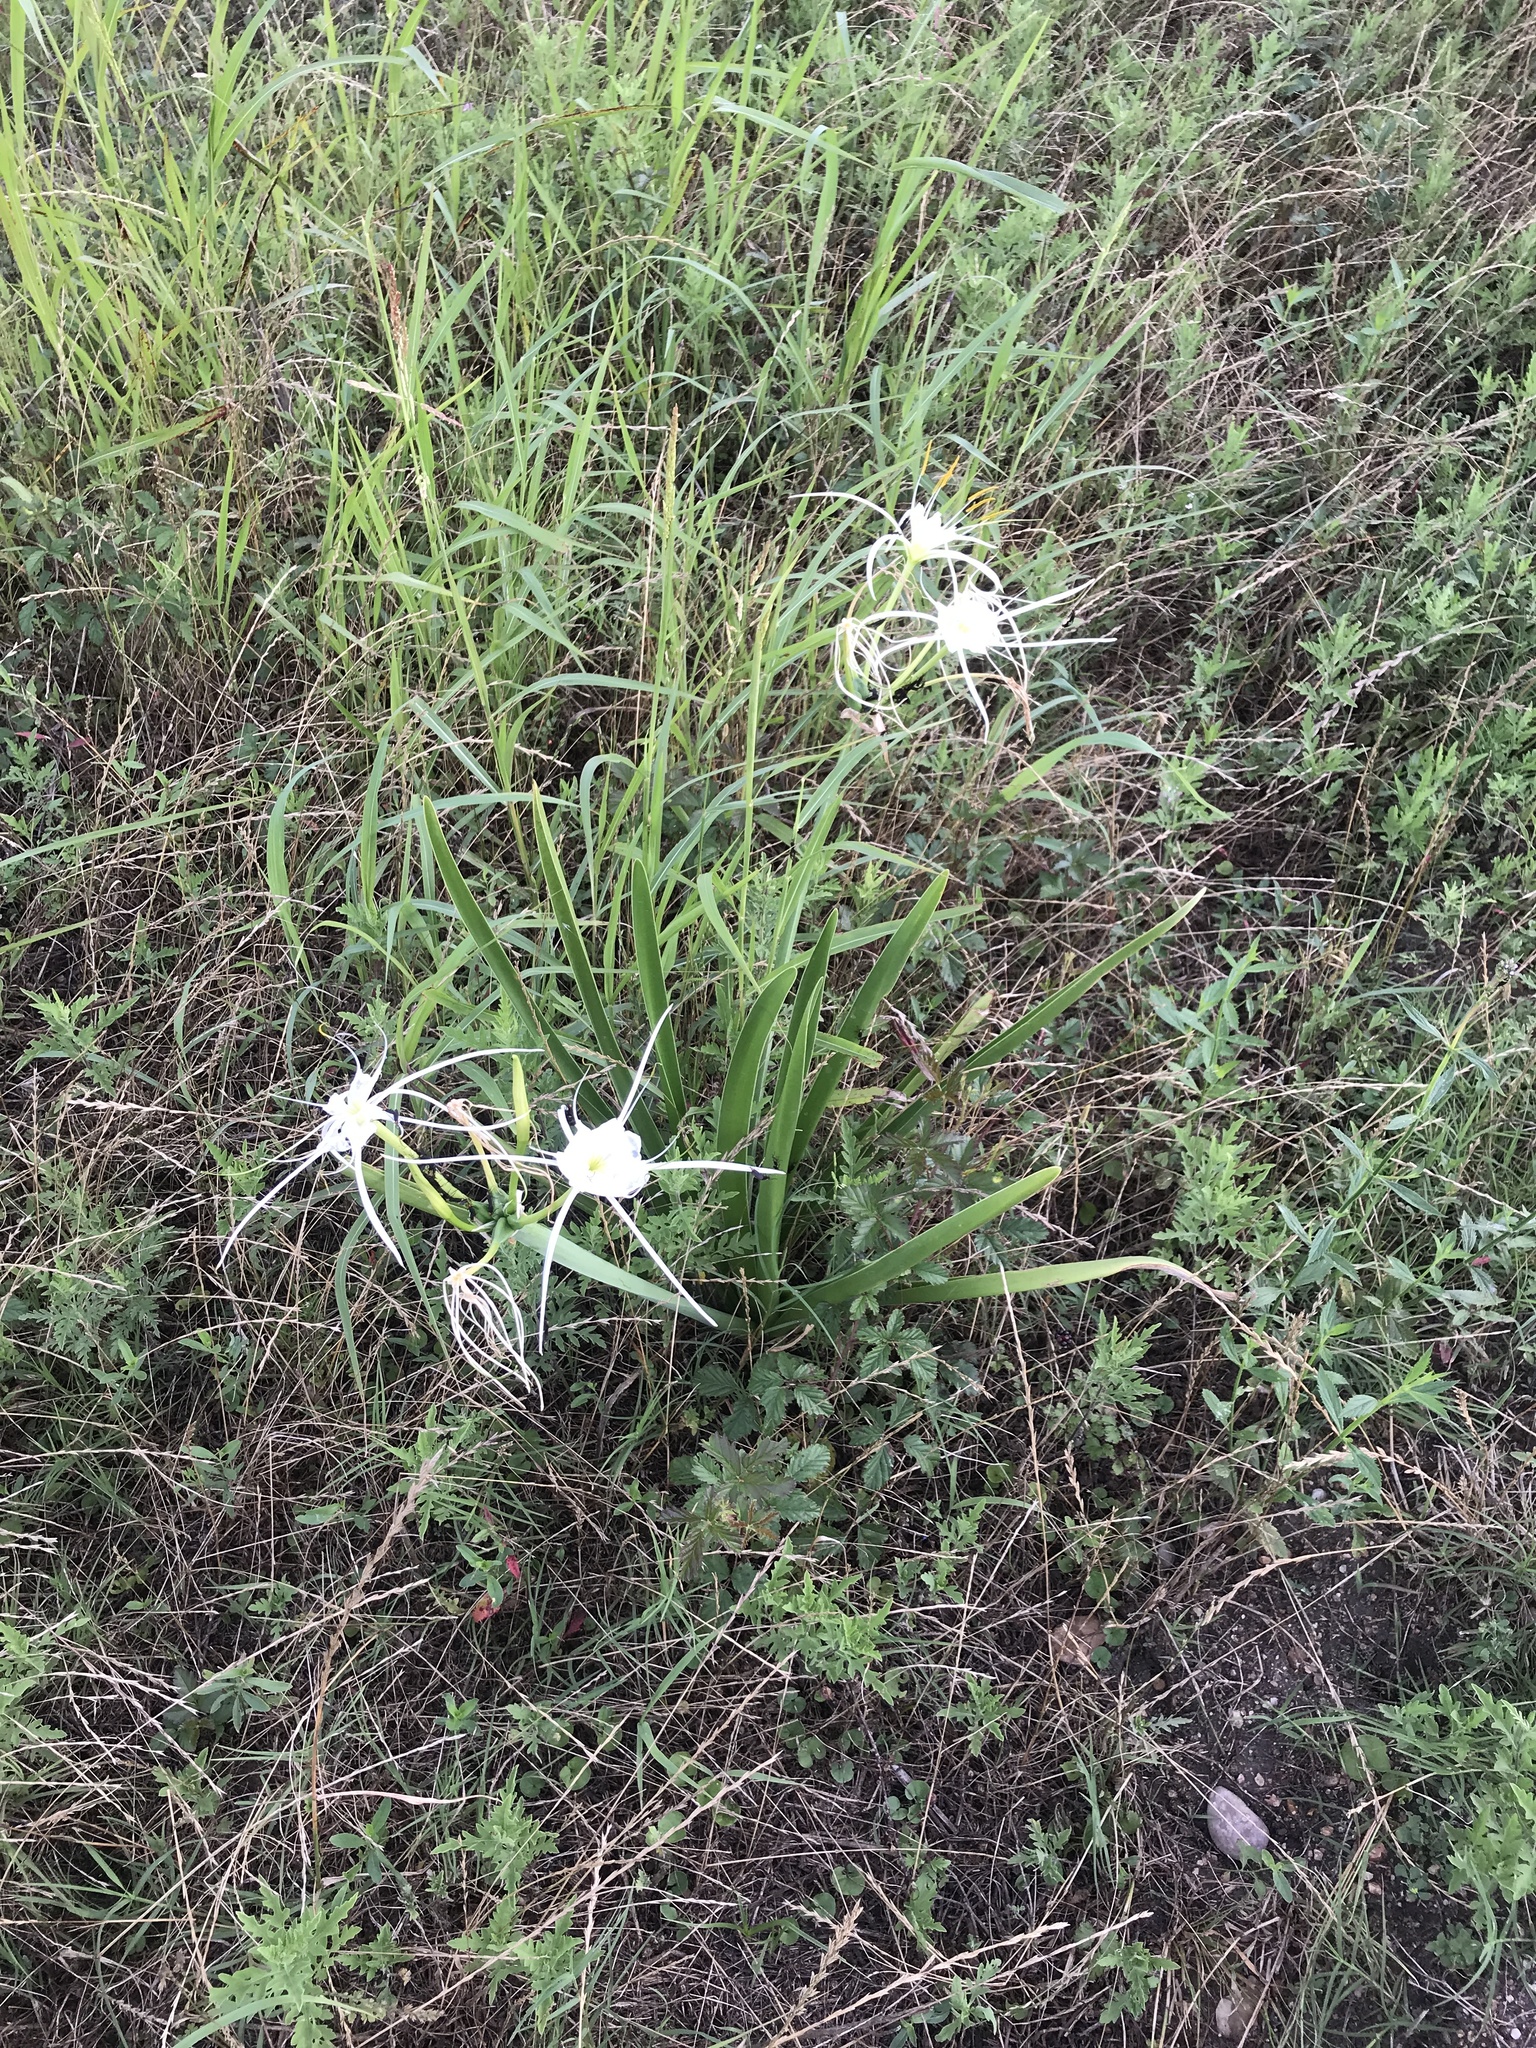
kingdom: Plantae
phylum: Tracheophyta
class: Liliopsida
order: Asparagales
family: Amaryllidaceae
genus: Hymenocallis
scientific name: Hymenocallis liriosme
